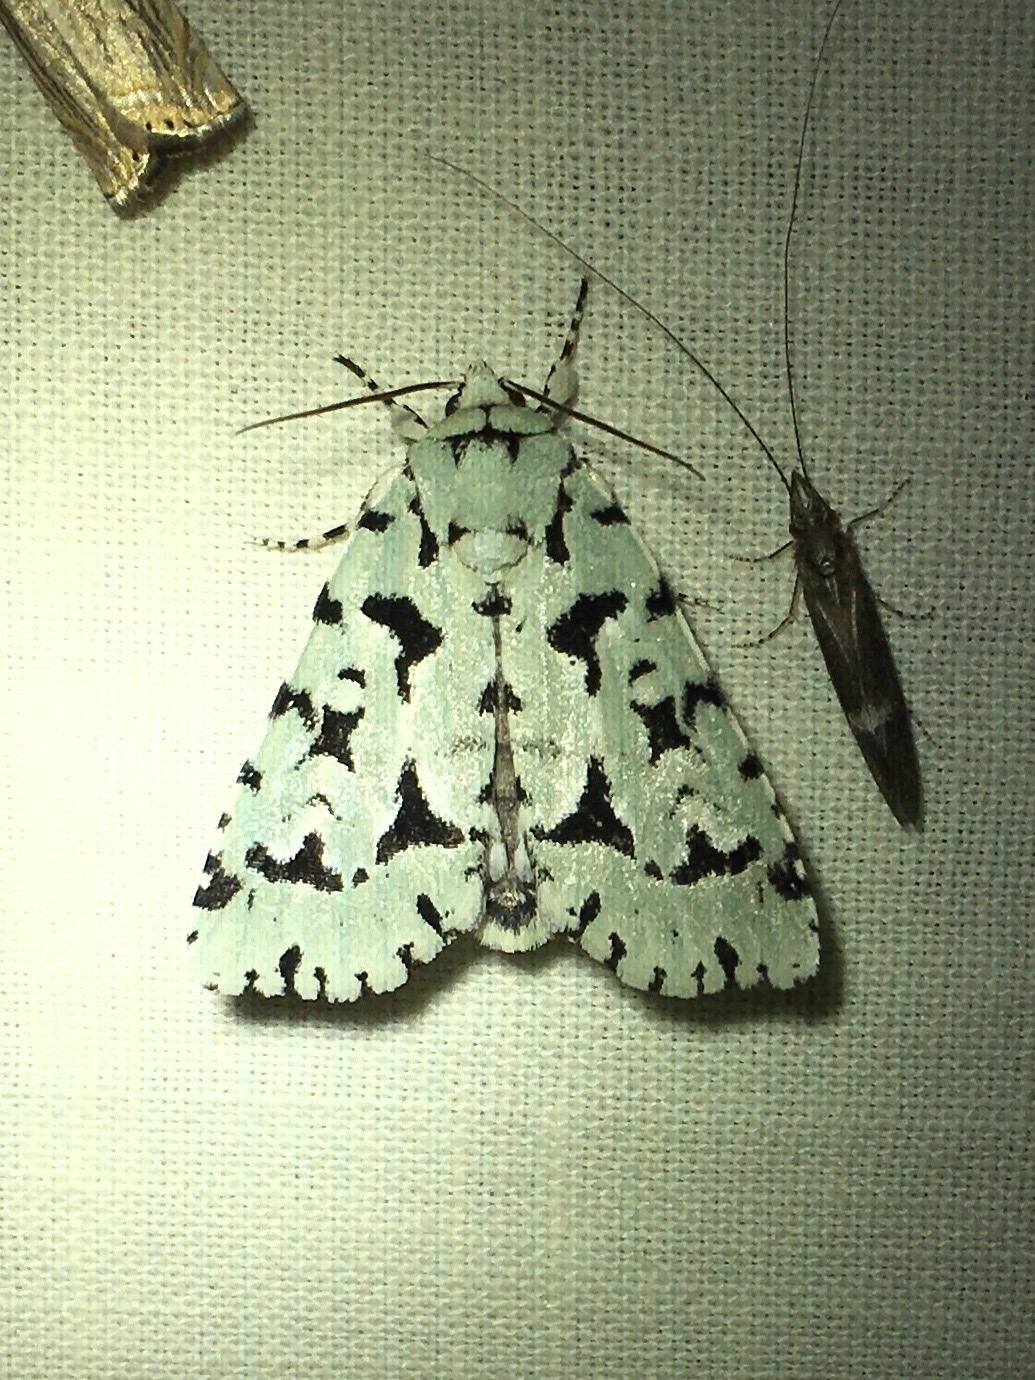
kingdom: Animalia
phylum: Arthropoda
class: Insecta
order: Lepidoptera
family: Noctuidae
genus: Acronicta
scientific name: Acronicta fallax
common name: Green marvel
